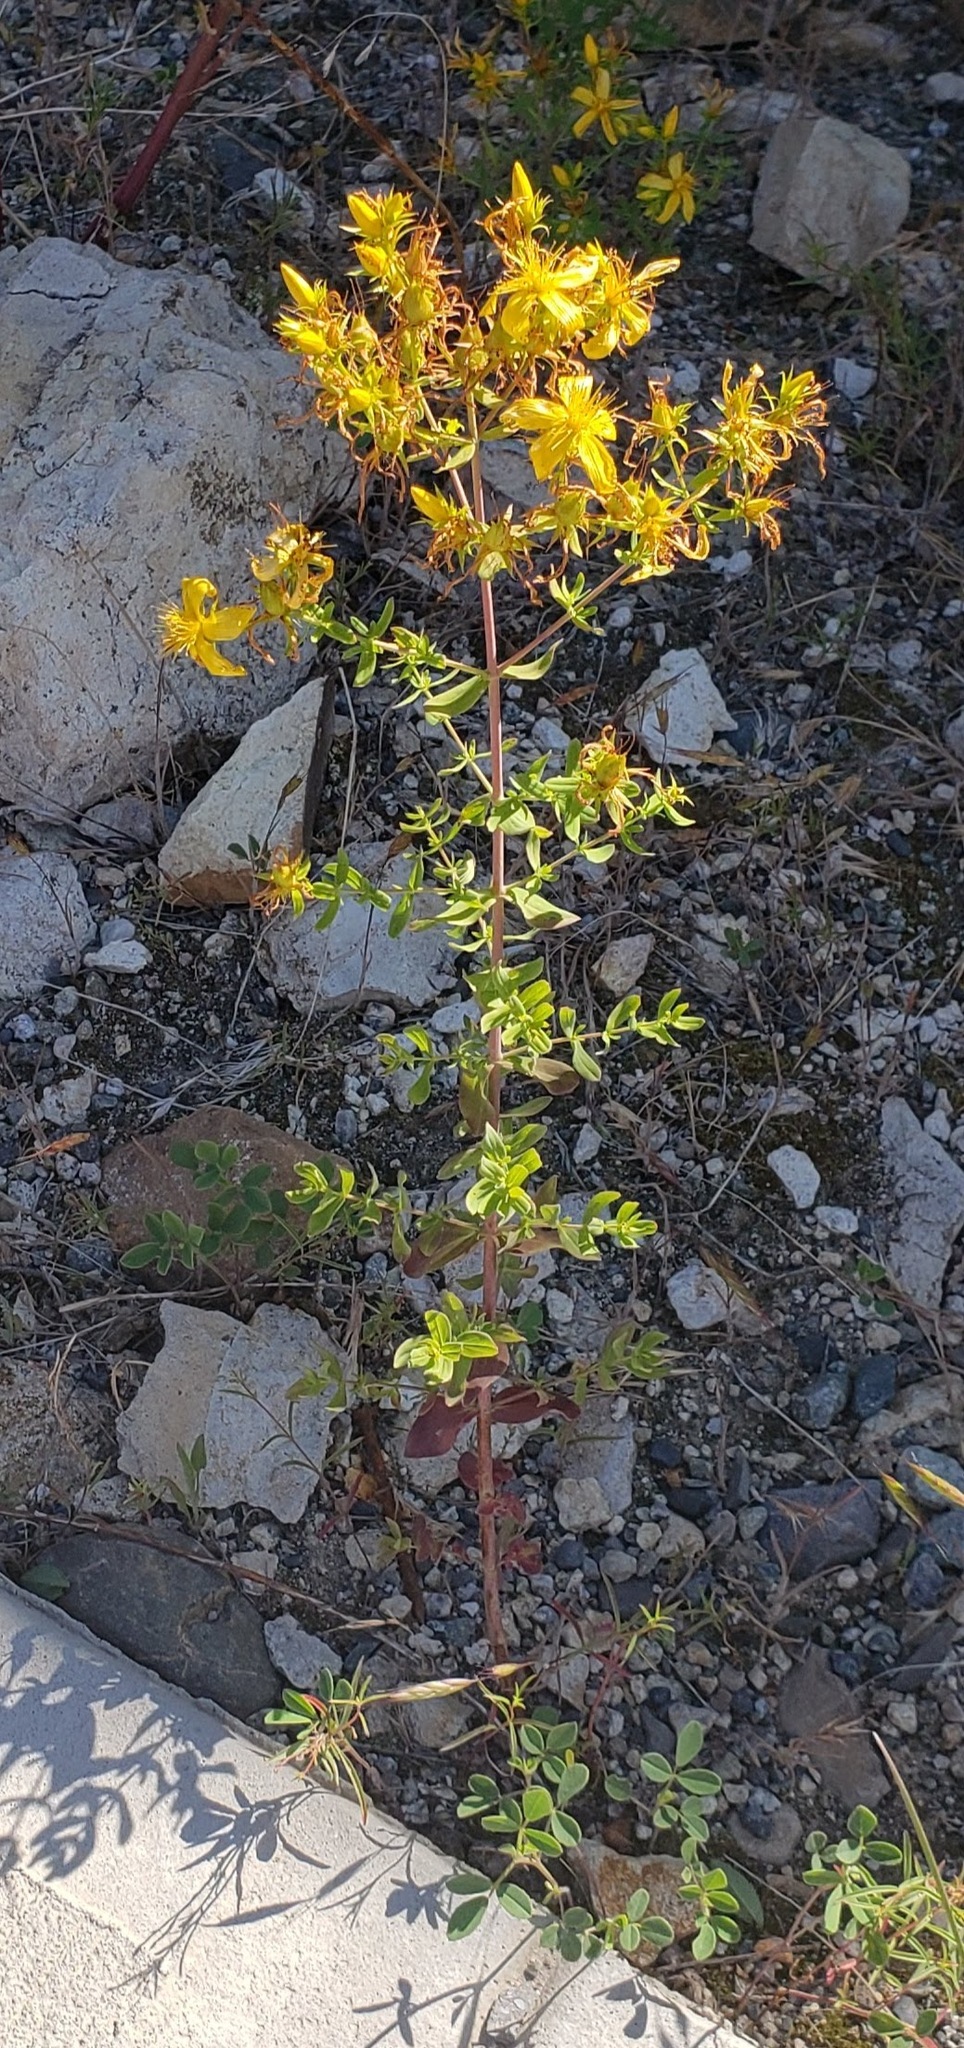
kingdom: Plantae
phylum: Tracheophyta
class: Magnoliopsida
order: Malpighiales
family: Hypericaceae
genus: Hypericum
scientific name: Hypericum perforatum
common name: Common st. johnswort
